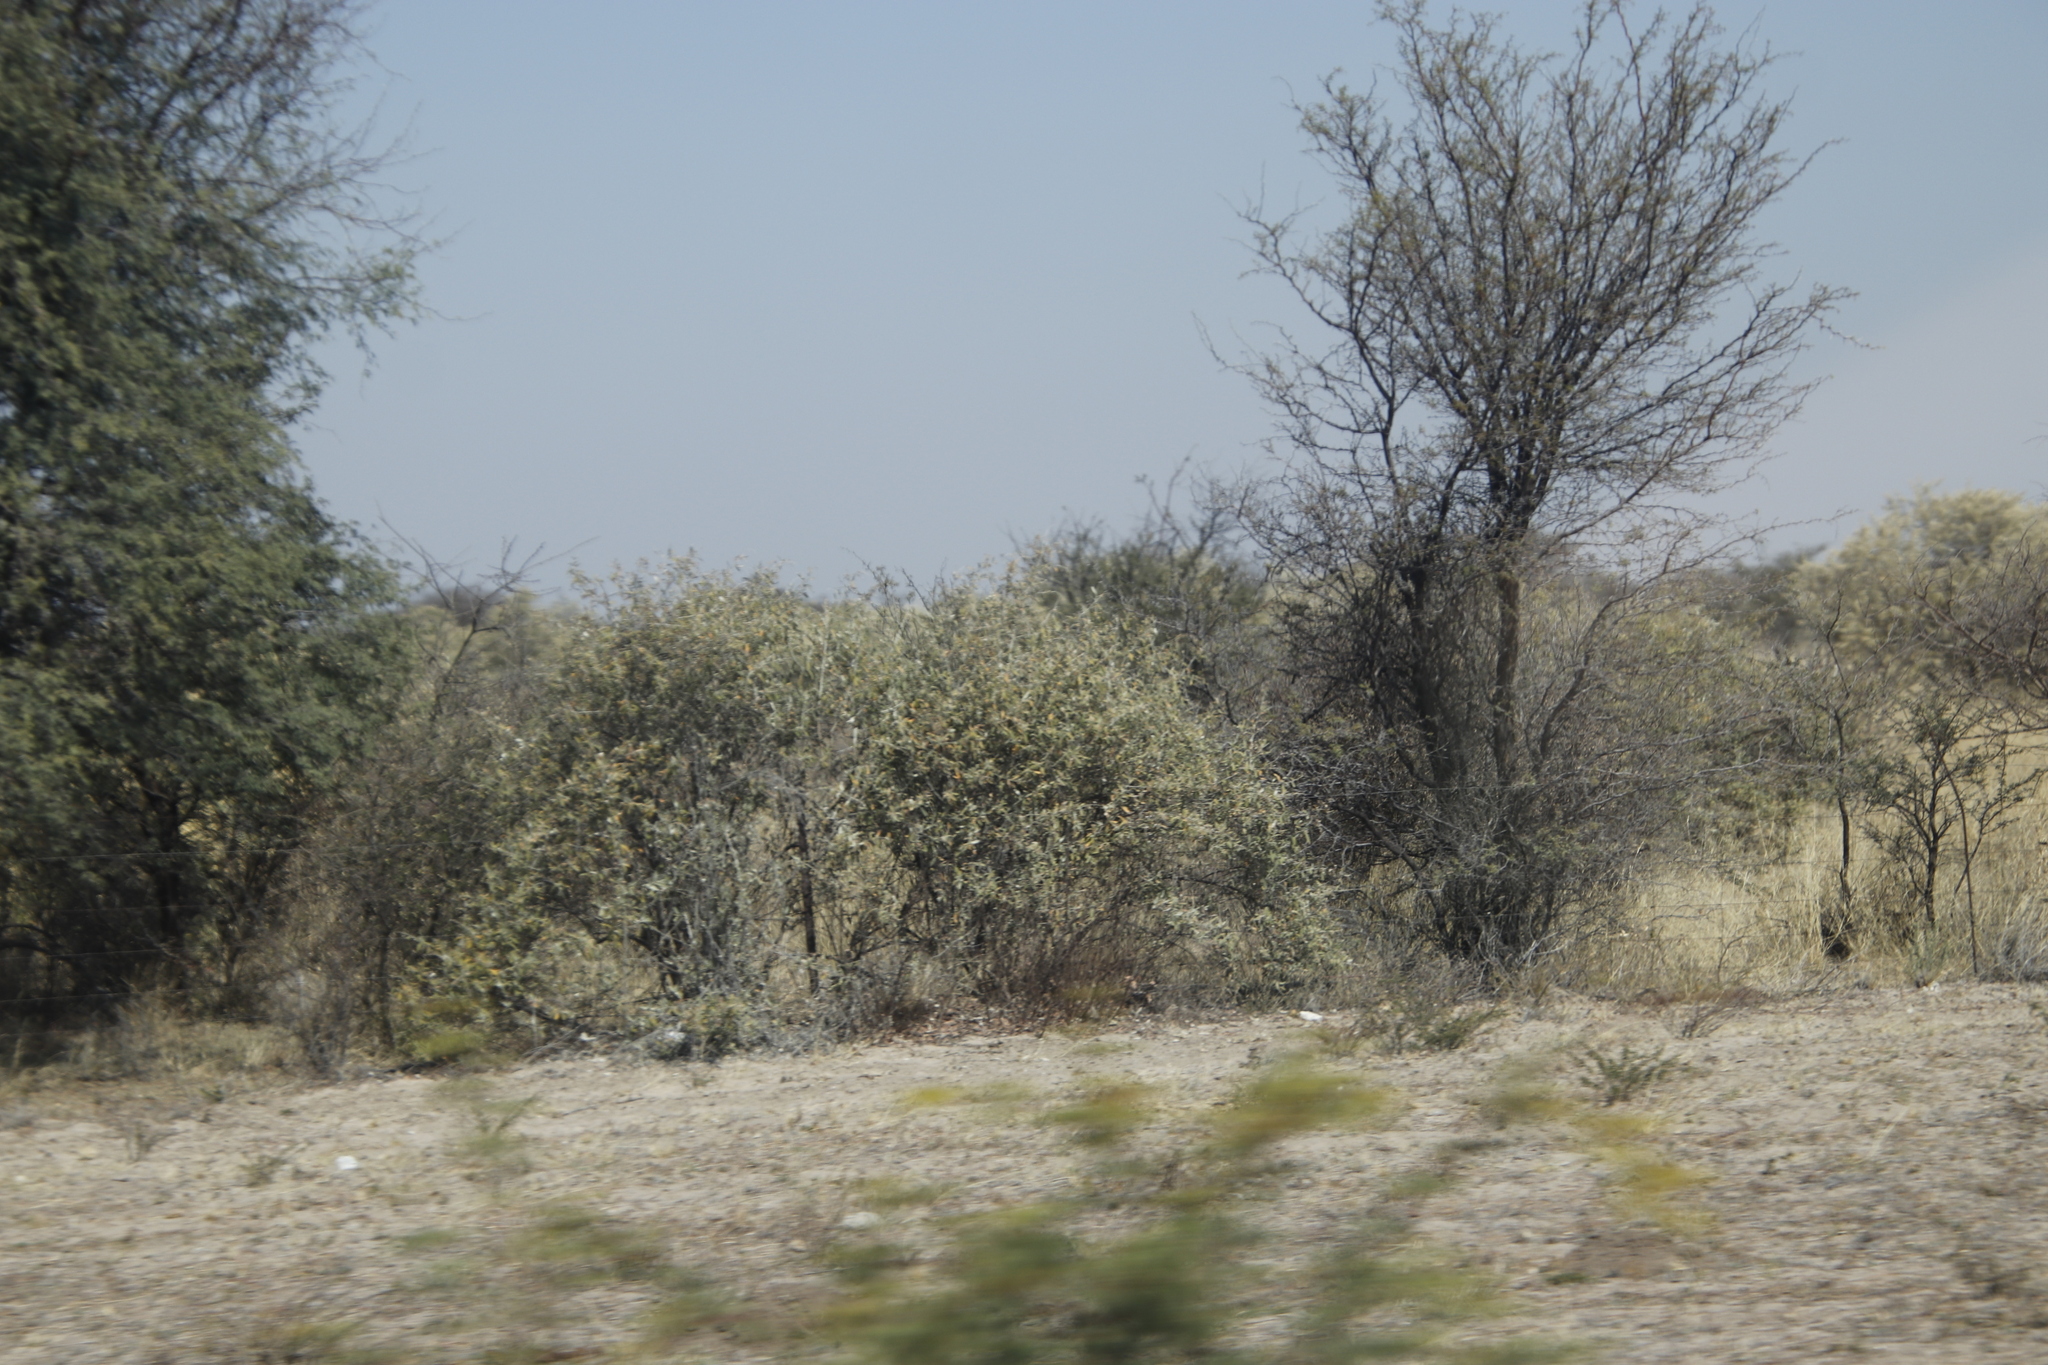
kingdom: Plantae
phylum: Tracheophyta
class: Magnoliopsida
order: Fabales
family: Fabaceae
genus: Senegalia
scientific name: Senegalia mellifera
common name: Hookthorn
